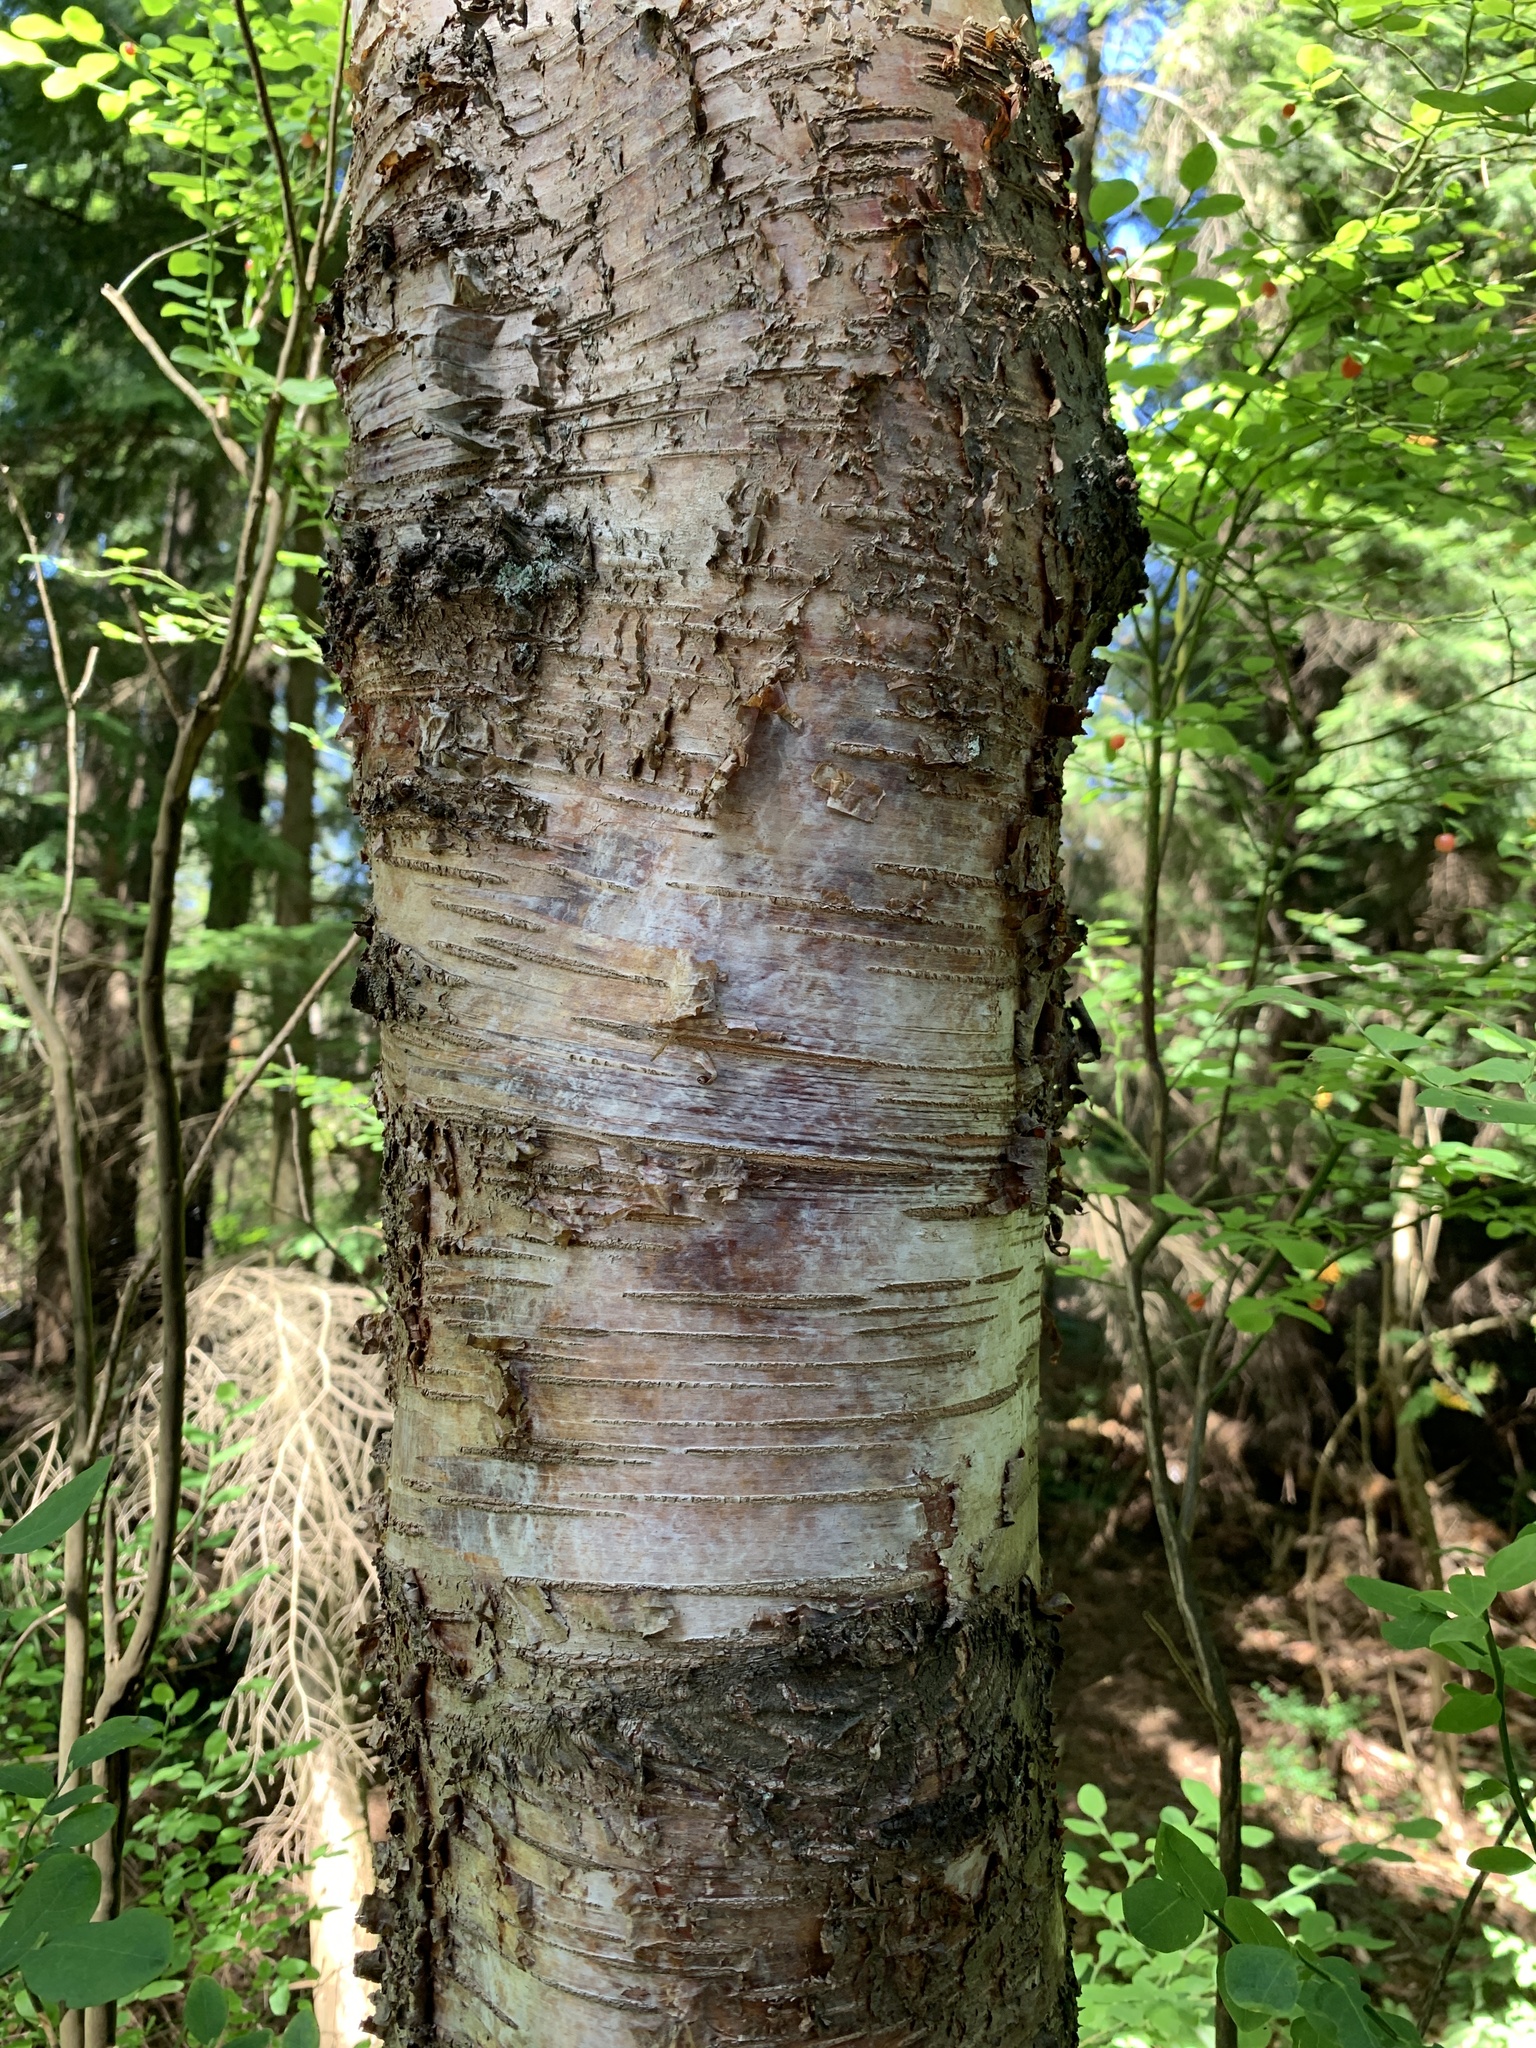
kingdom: Plantae
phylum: Tracheophyta
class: Magnoliopsida
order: Fagales
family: Betulaceae
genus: Betula
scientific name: Betula papyrifera
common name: Paper birch
